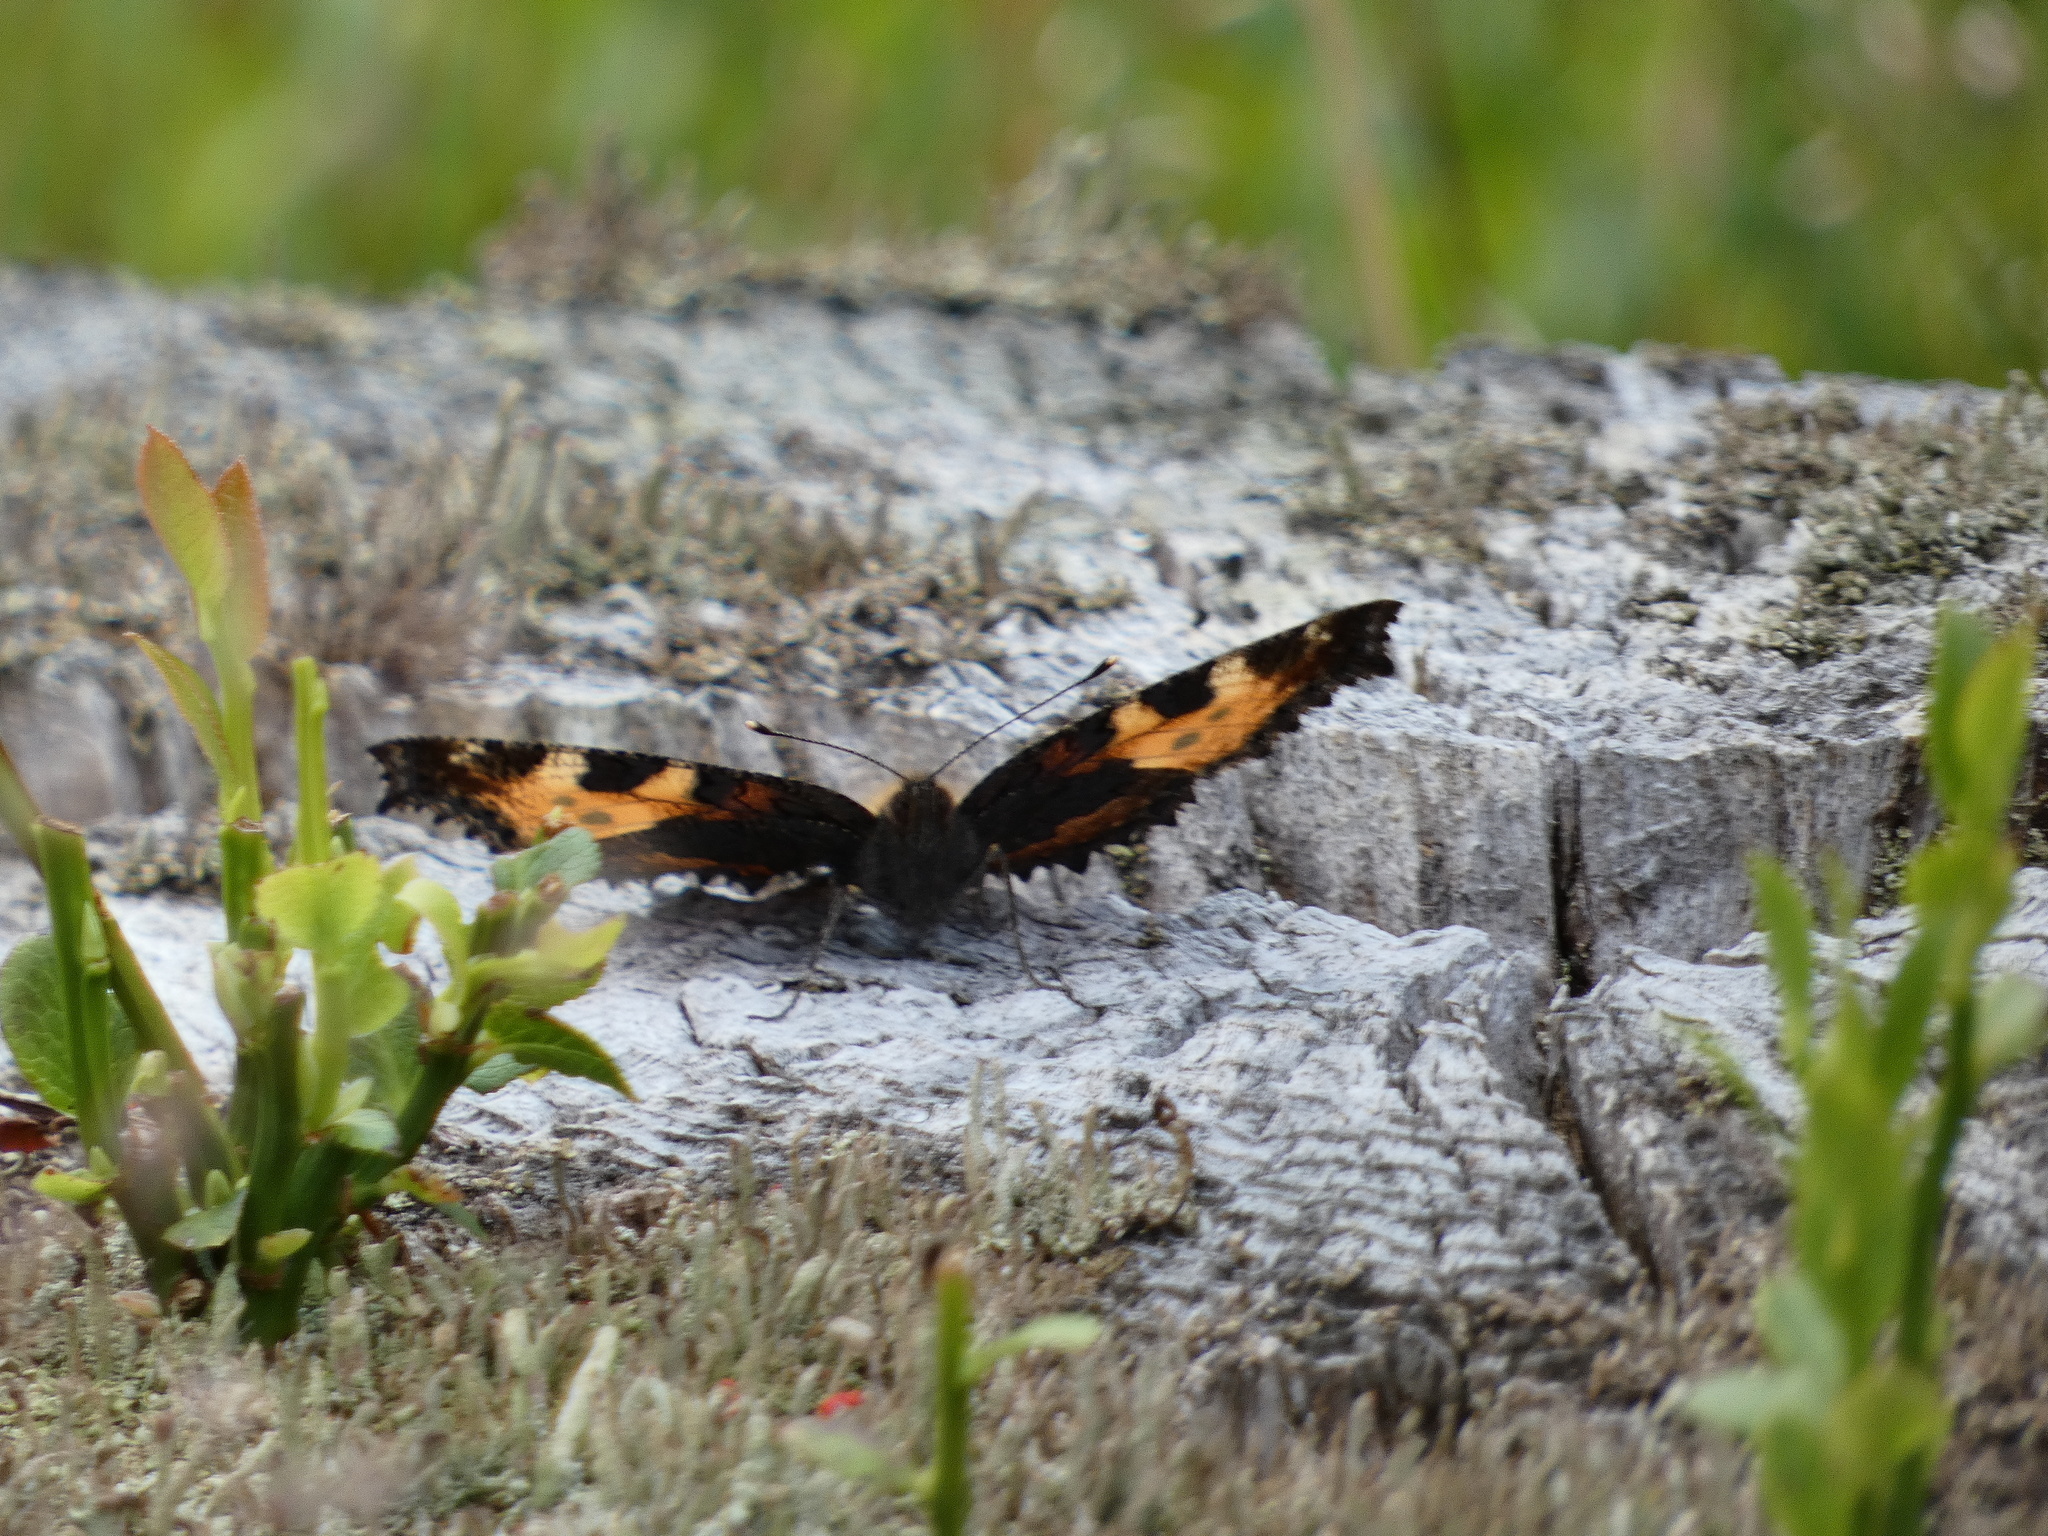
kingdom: Animalia
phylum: Arthropoda
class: Insecta
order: Lepidoptera
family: Nymphalidae
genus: Aglais
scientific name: Aglais urticae
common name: Small tortoiseshell
